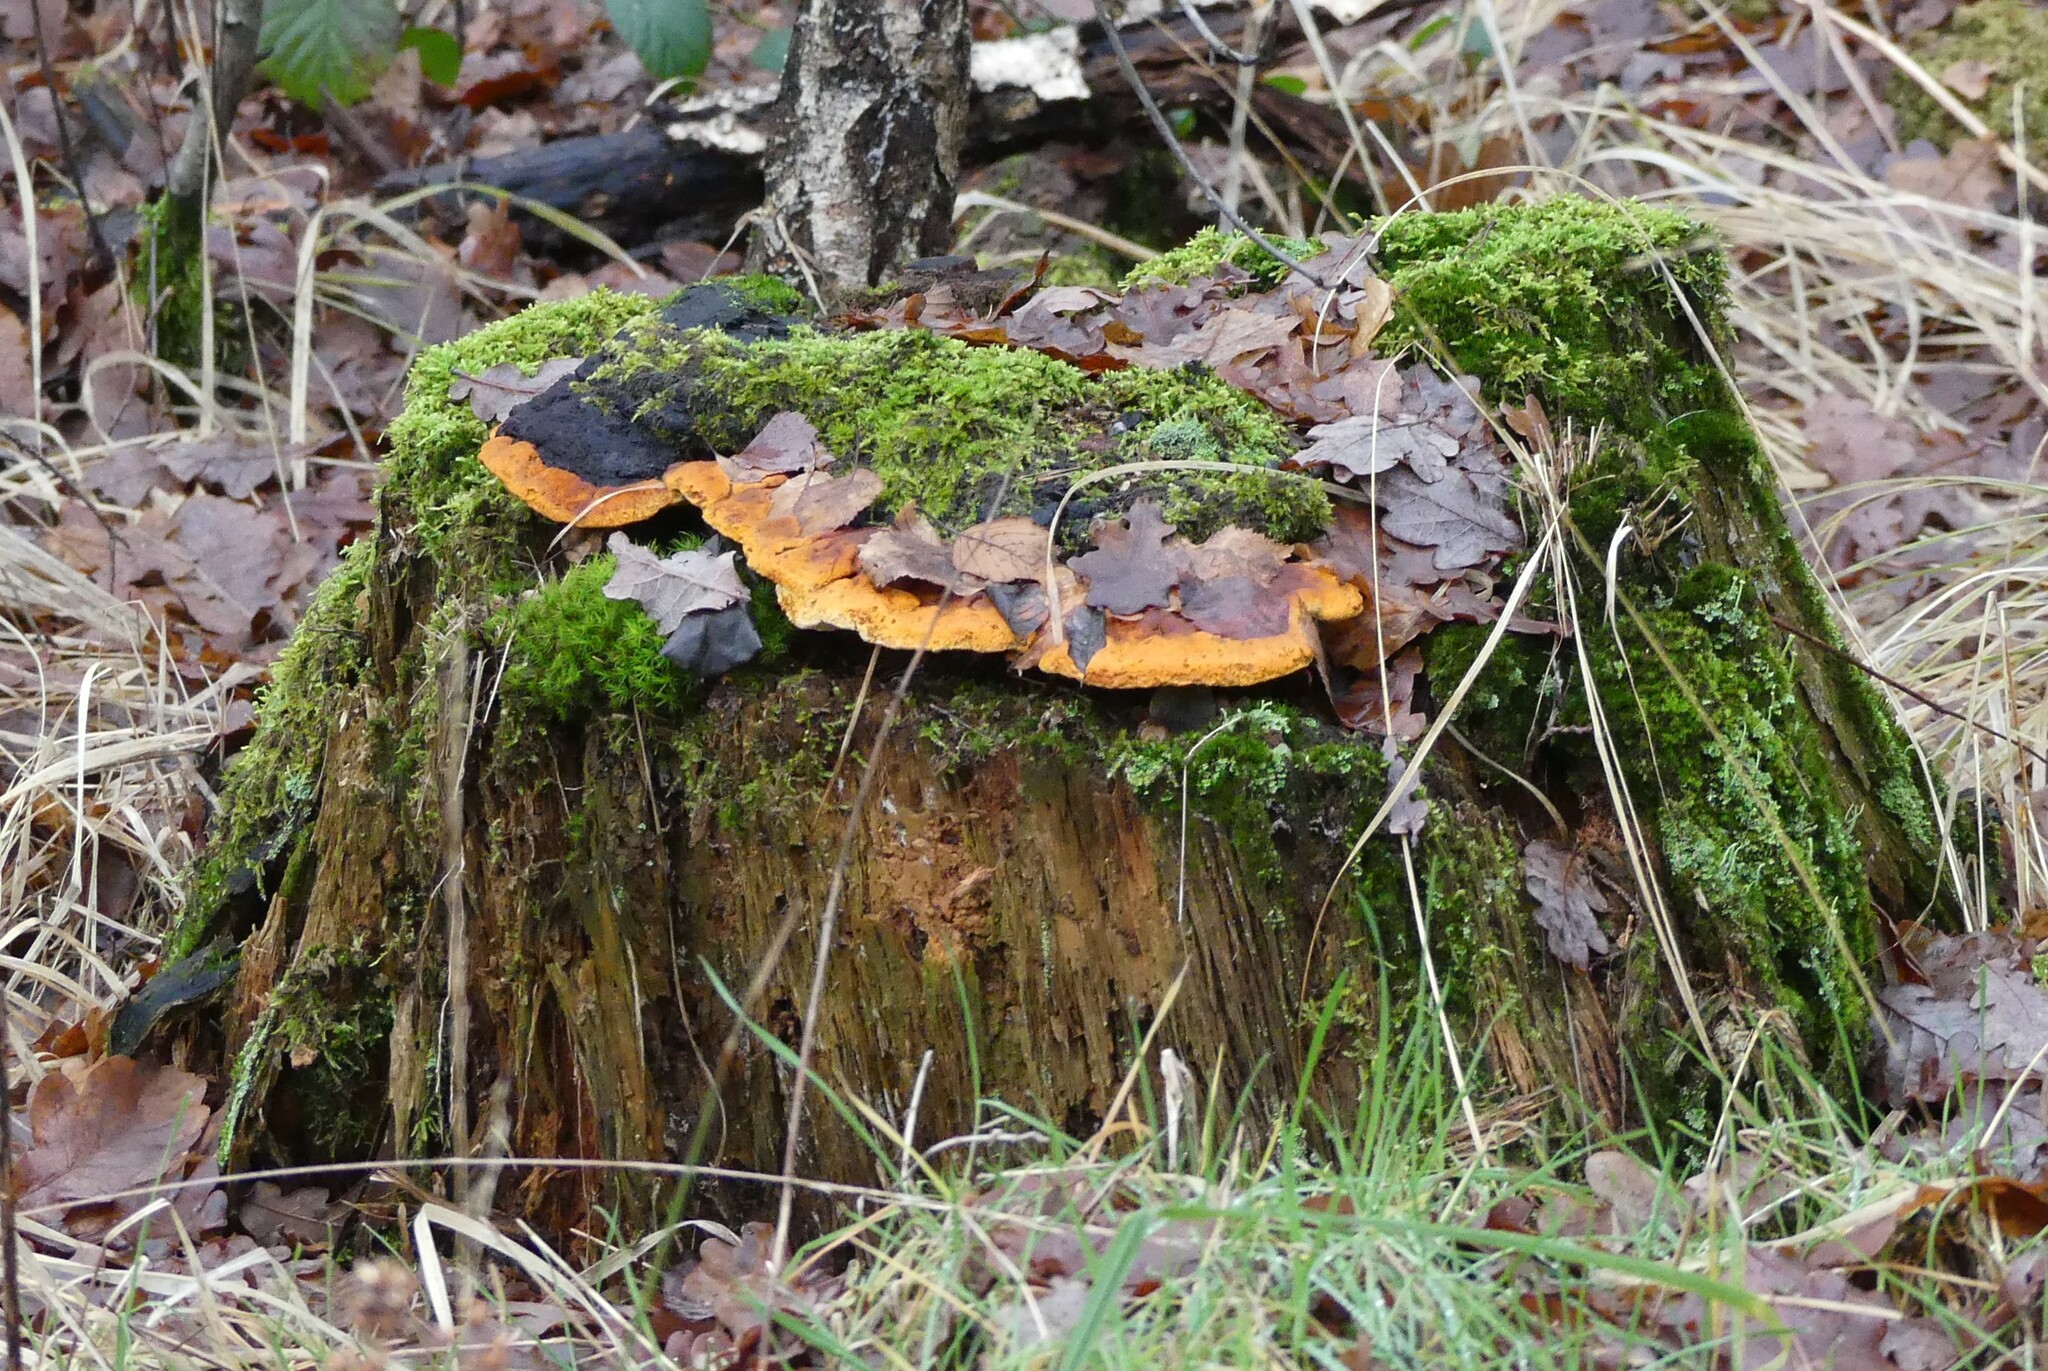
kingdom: Fungi
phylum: Basidiomycota
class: Agaricomycetes
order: Gloeophyllales
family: Gloeophyllaceae
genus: Gloeophyllum
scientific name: Gloeophyllum odoratum
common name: Anise mazegill
